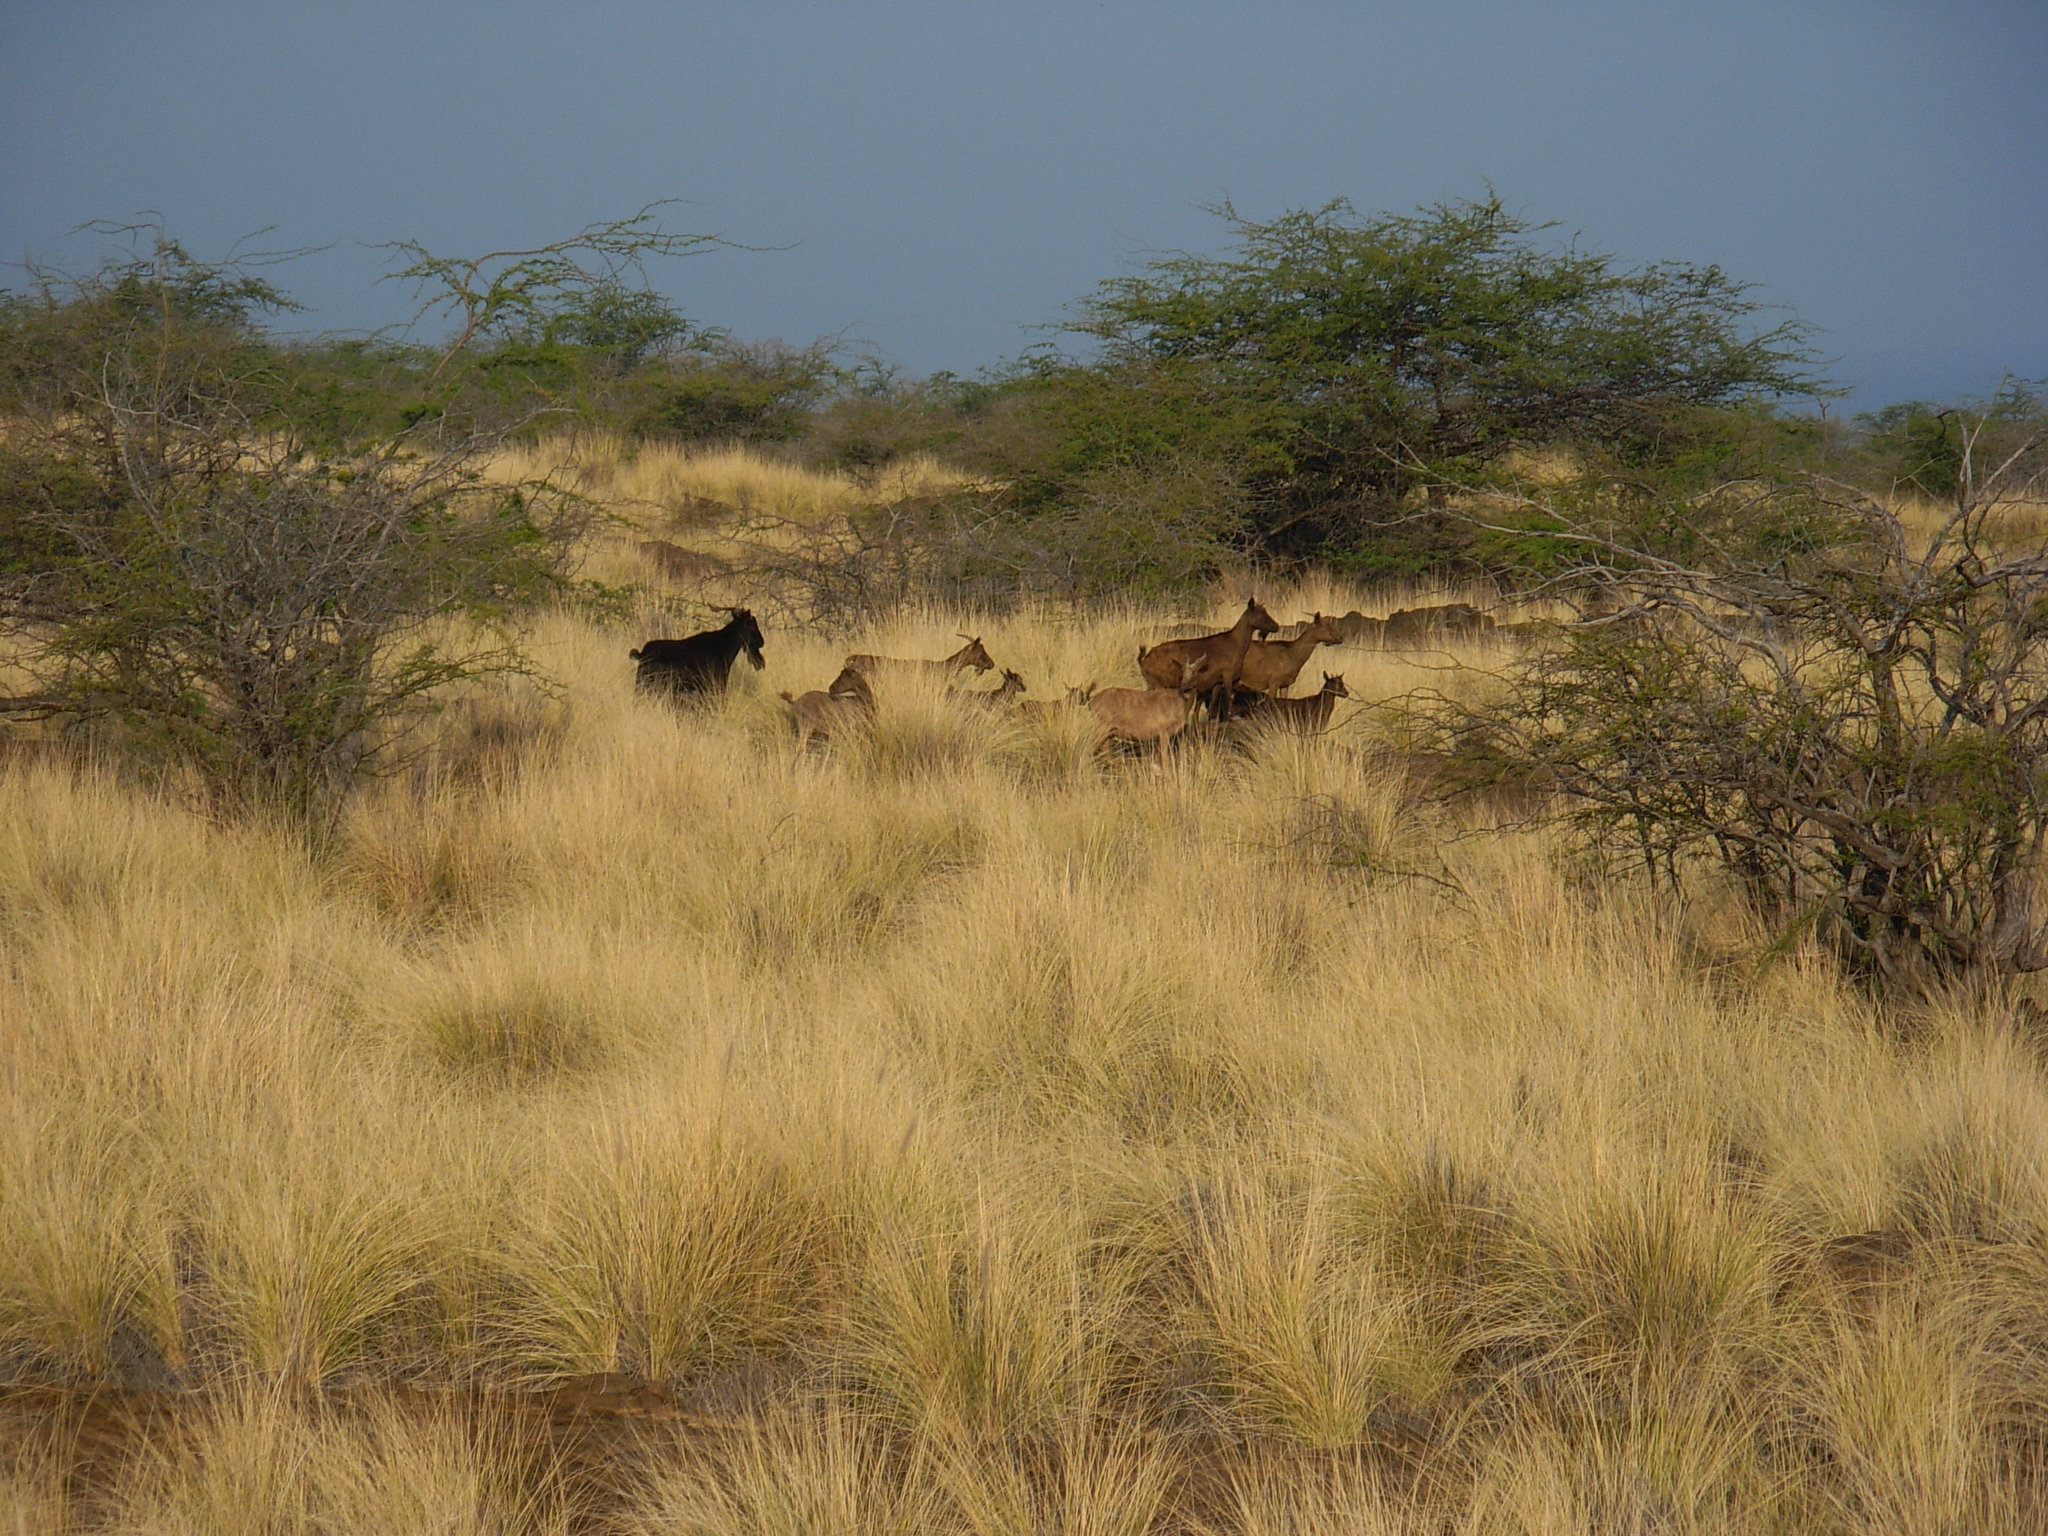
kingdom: Animalia
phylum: Chordata
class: Mammalia
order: Artiodactyla
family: Bovidae
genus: Capra
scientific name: Capra hircus
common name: Domestic goat
